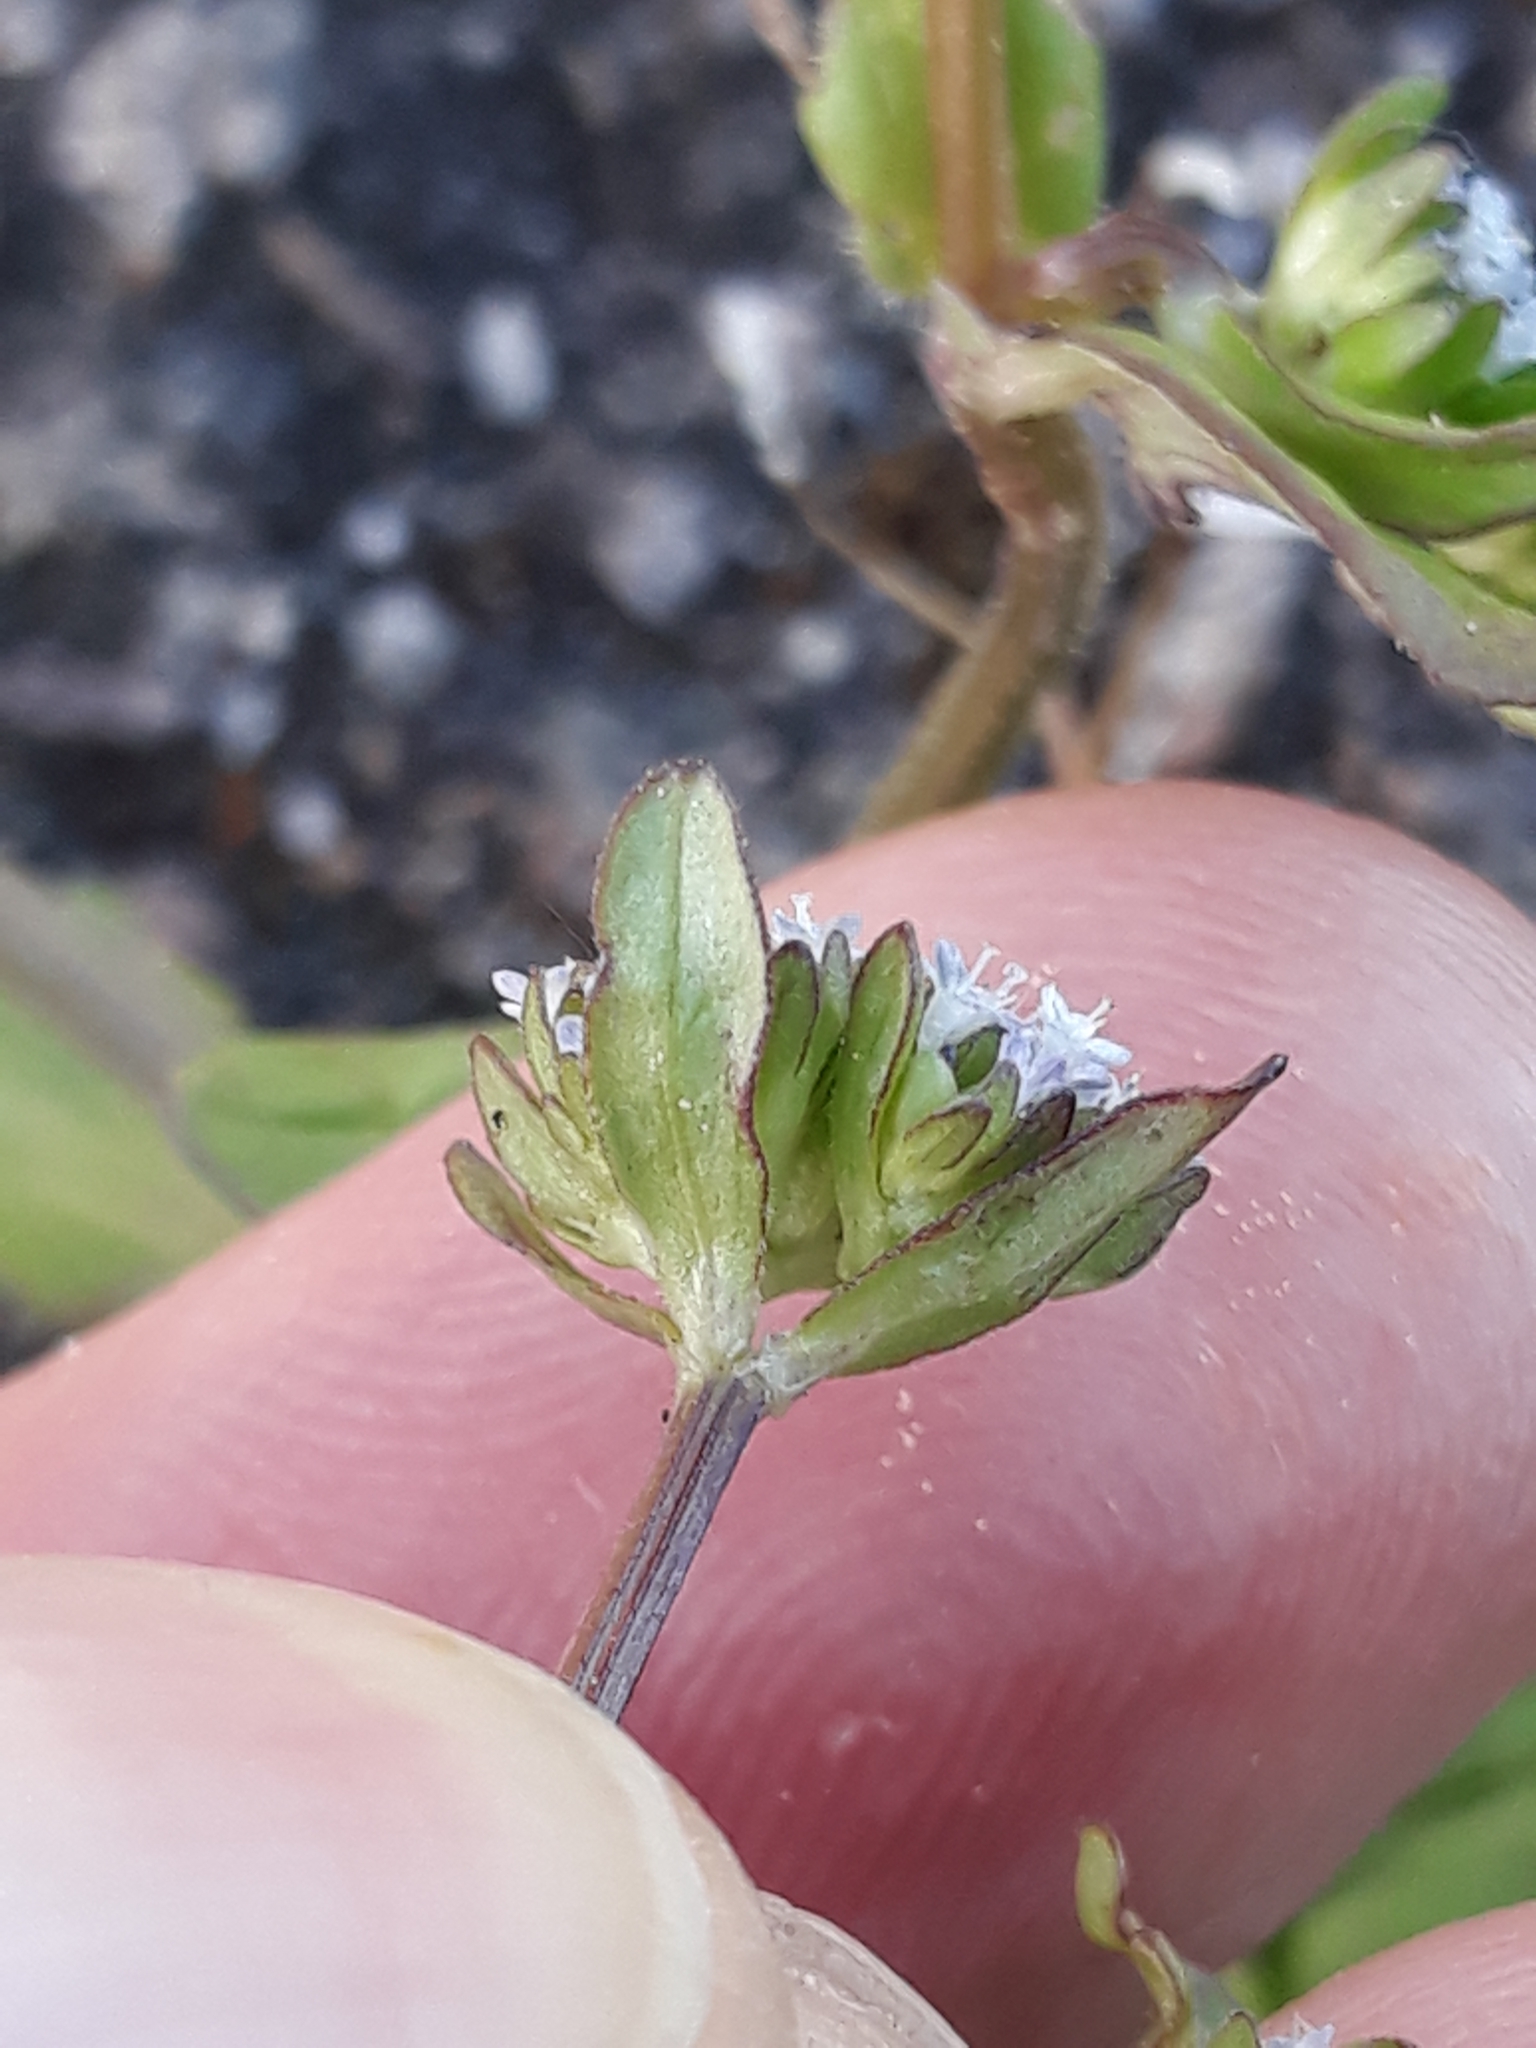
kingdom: Plantae
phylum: Tracheophyta
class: Magnoliopsida
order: Dipsacales
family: Caprifoliaceae
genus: Valerianella
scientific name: Valerianella locusta
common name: Common cornsalad
